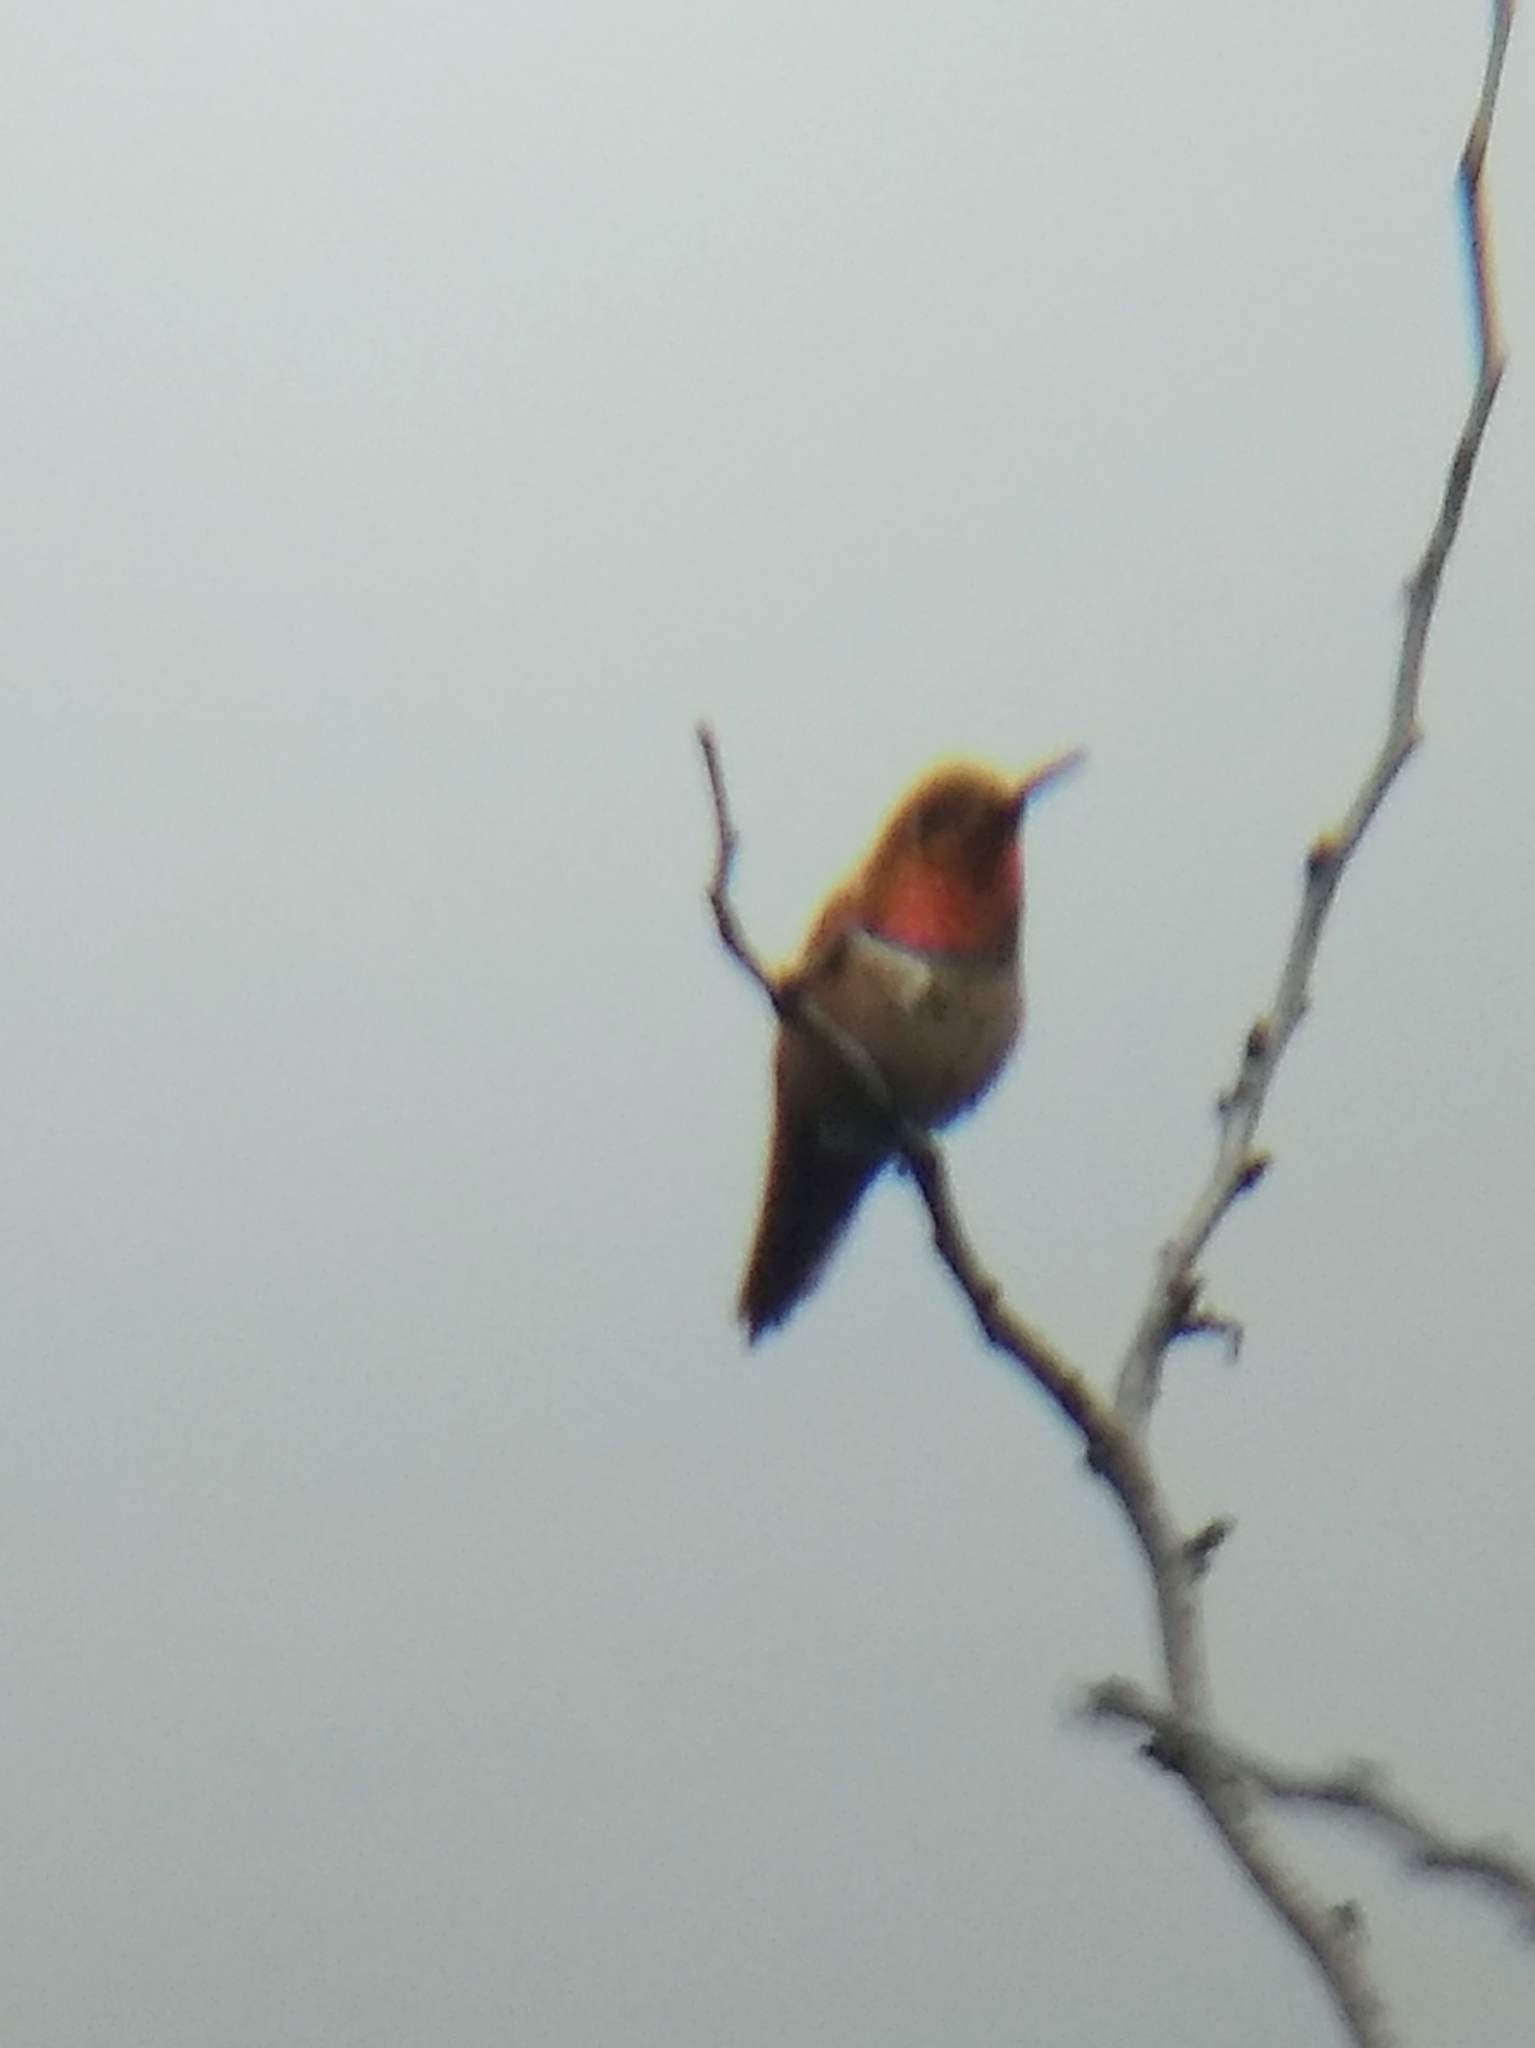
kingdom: Animalia
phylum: Chordata
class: Aves
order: Apodiformes
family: Trochilidae
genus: Selasphorus
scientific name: Selasphorus sasin
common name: Allen's hummingbird
